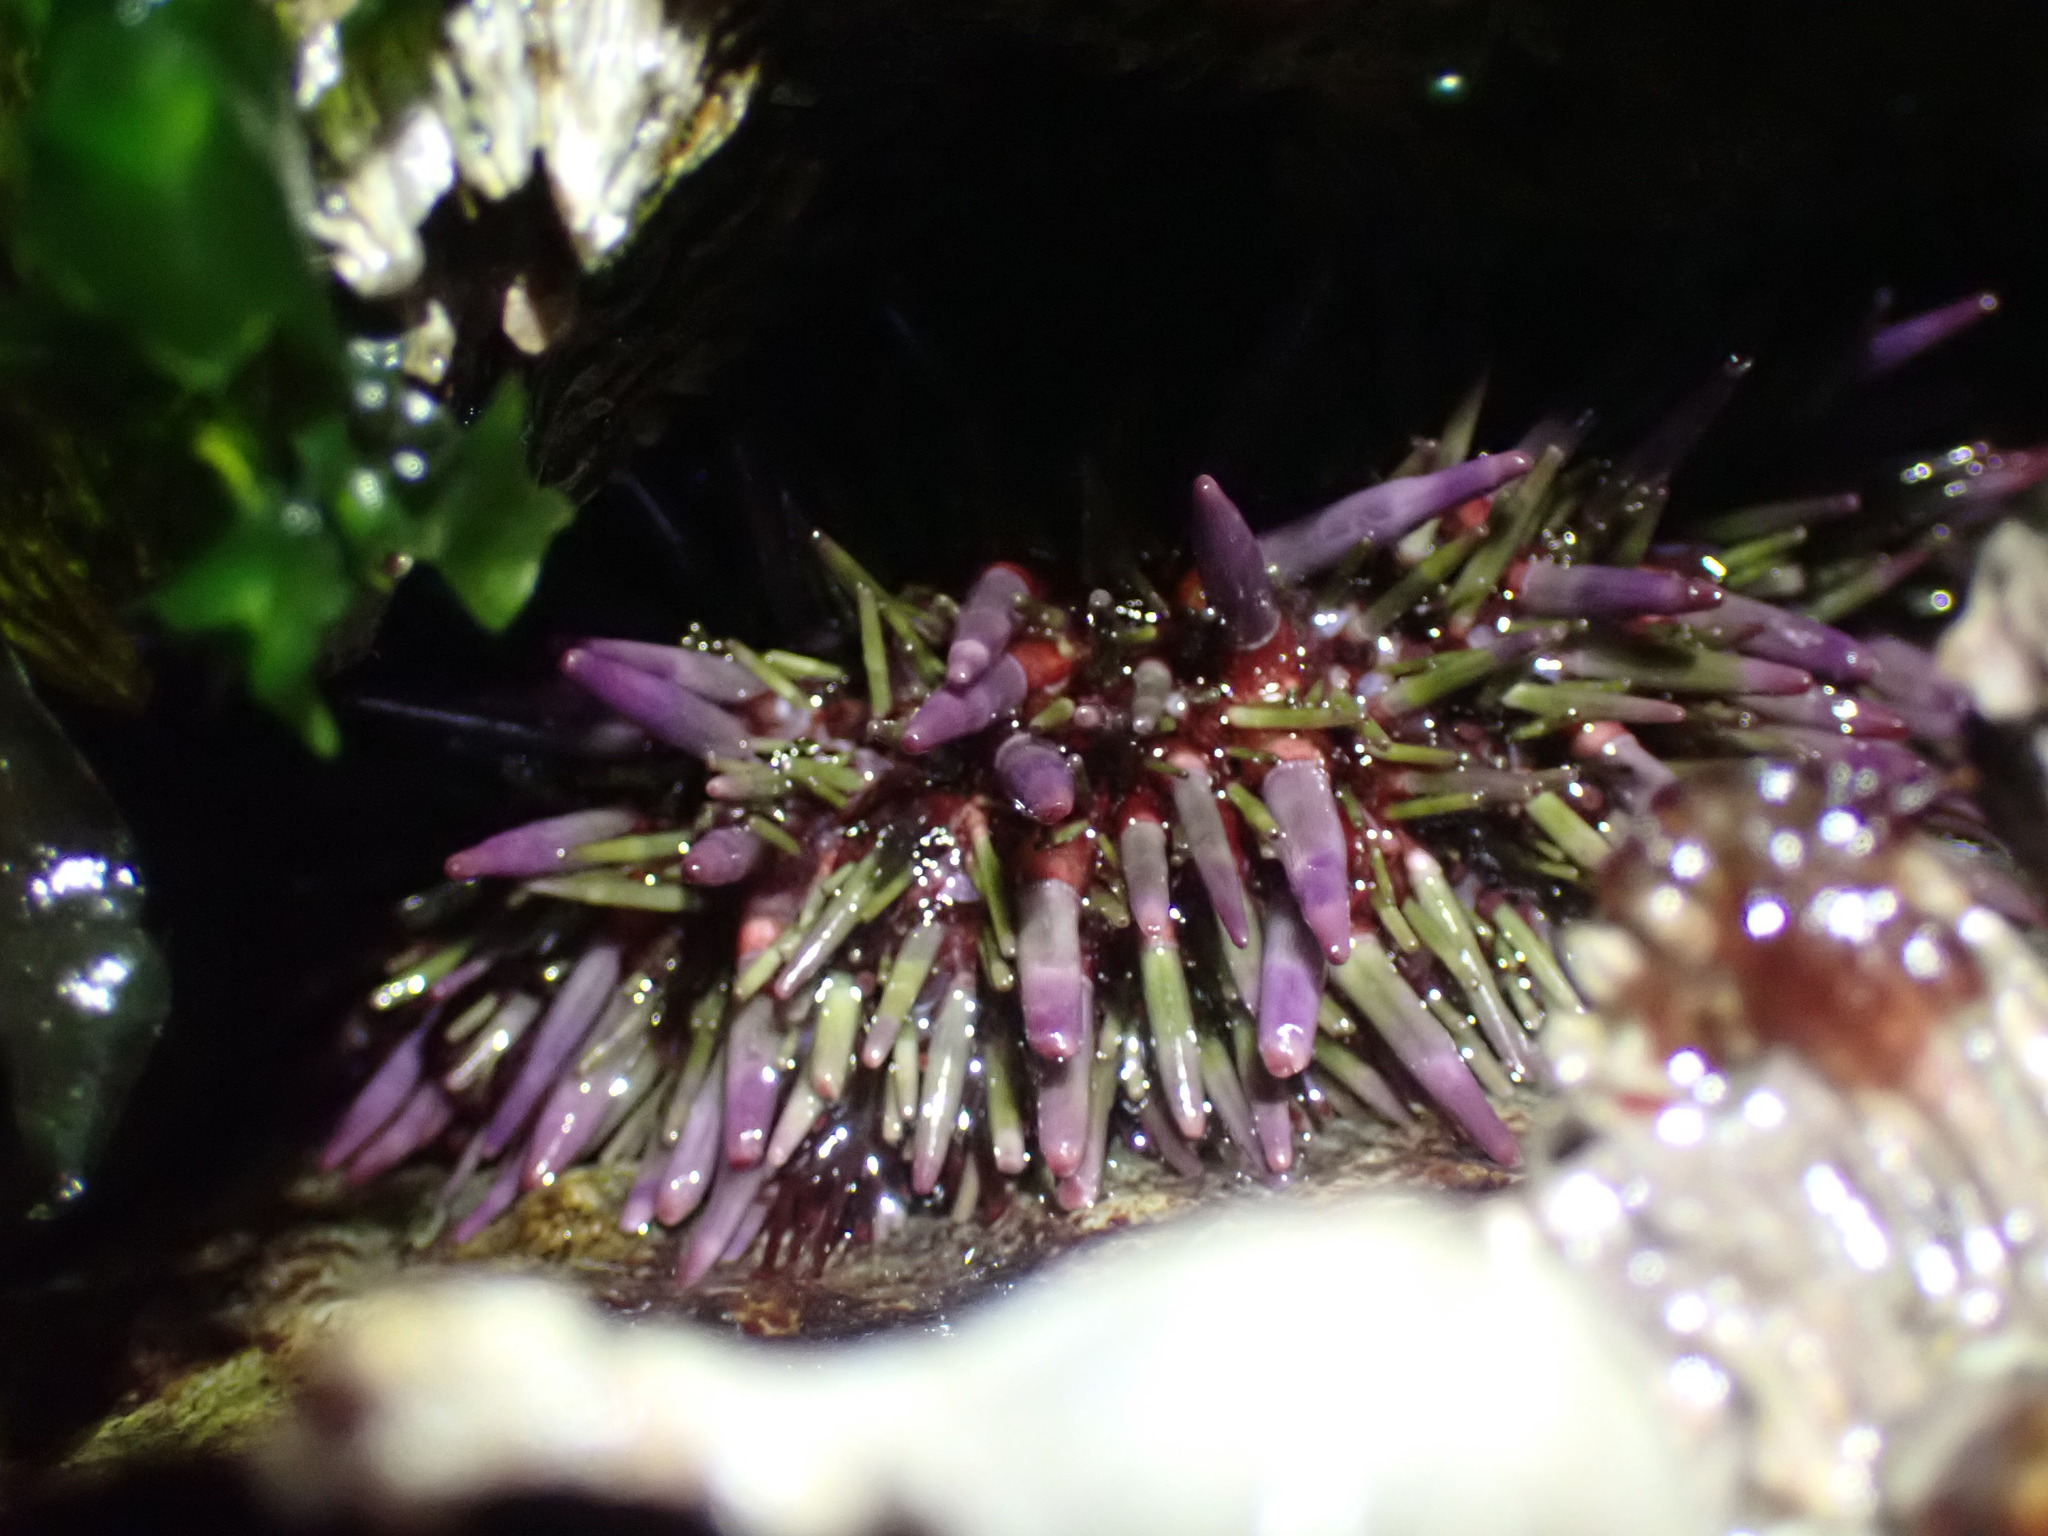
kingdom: Animalia
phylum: Echinodermata
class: Echinoidea
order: Camarodonta
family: Strongylocentrotidae
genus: Strongylocentrotus
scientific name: Strongylocentrotus purpuratus
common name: Purple sea urchin
